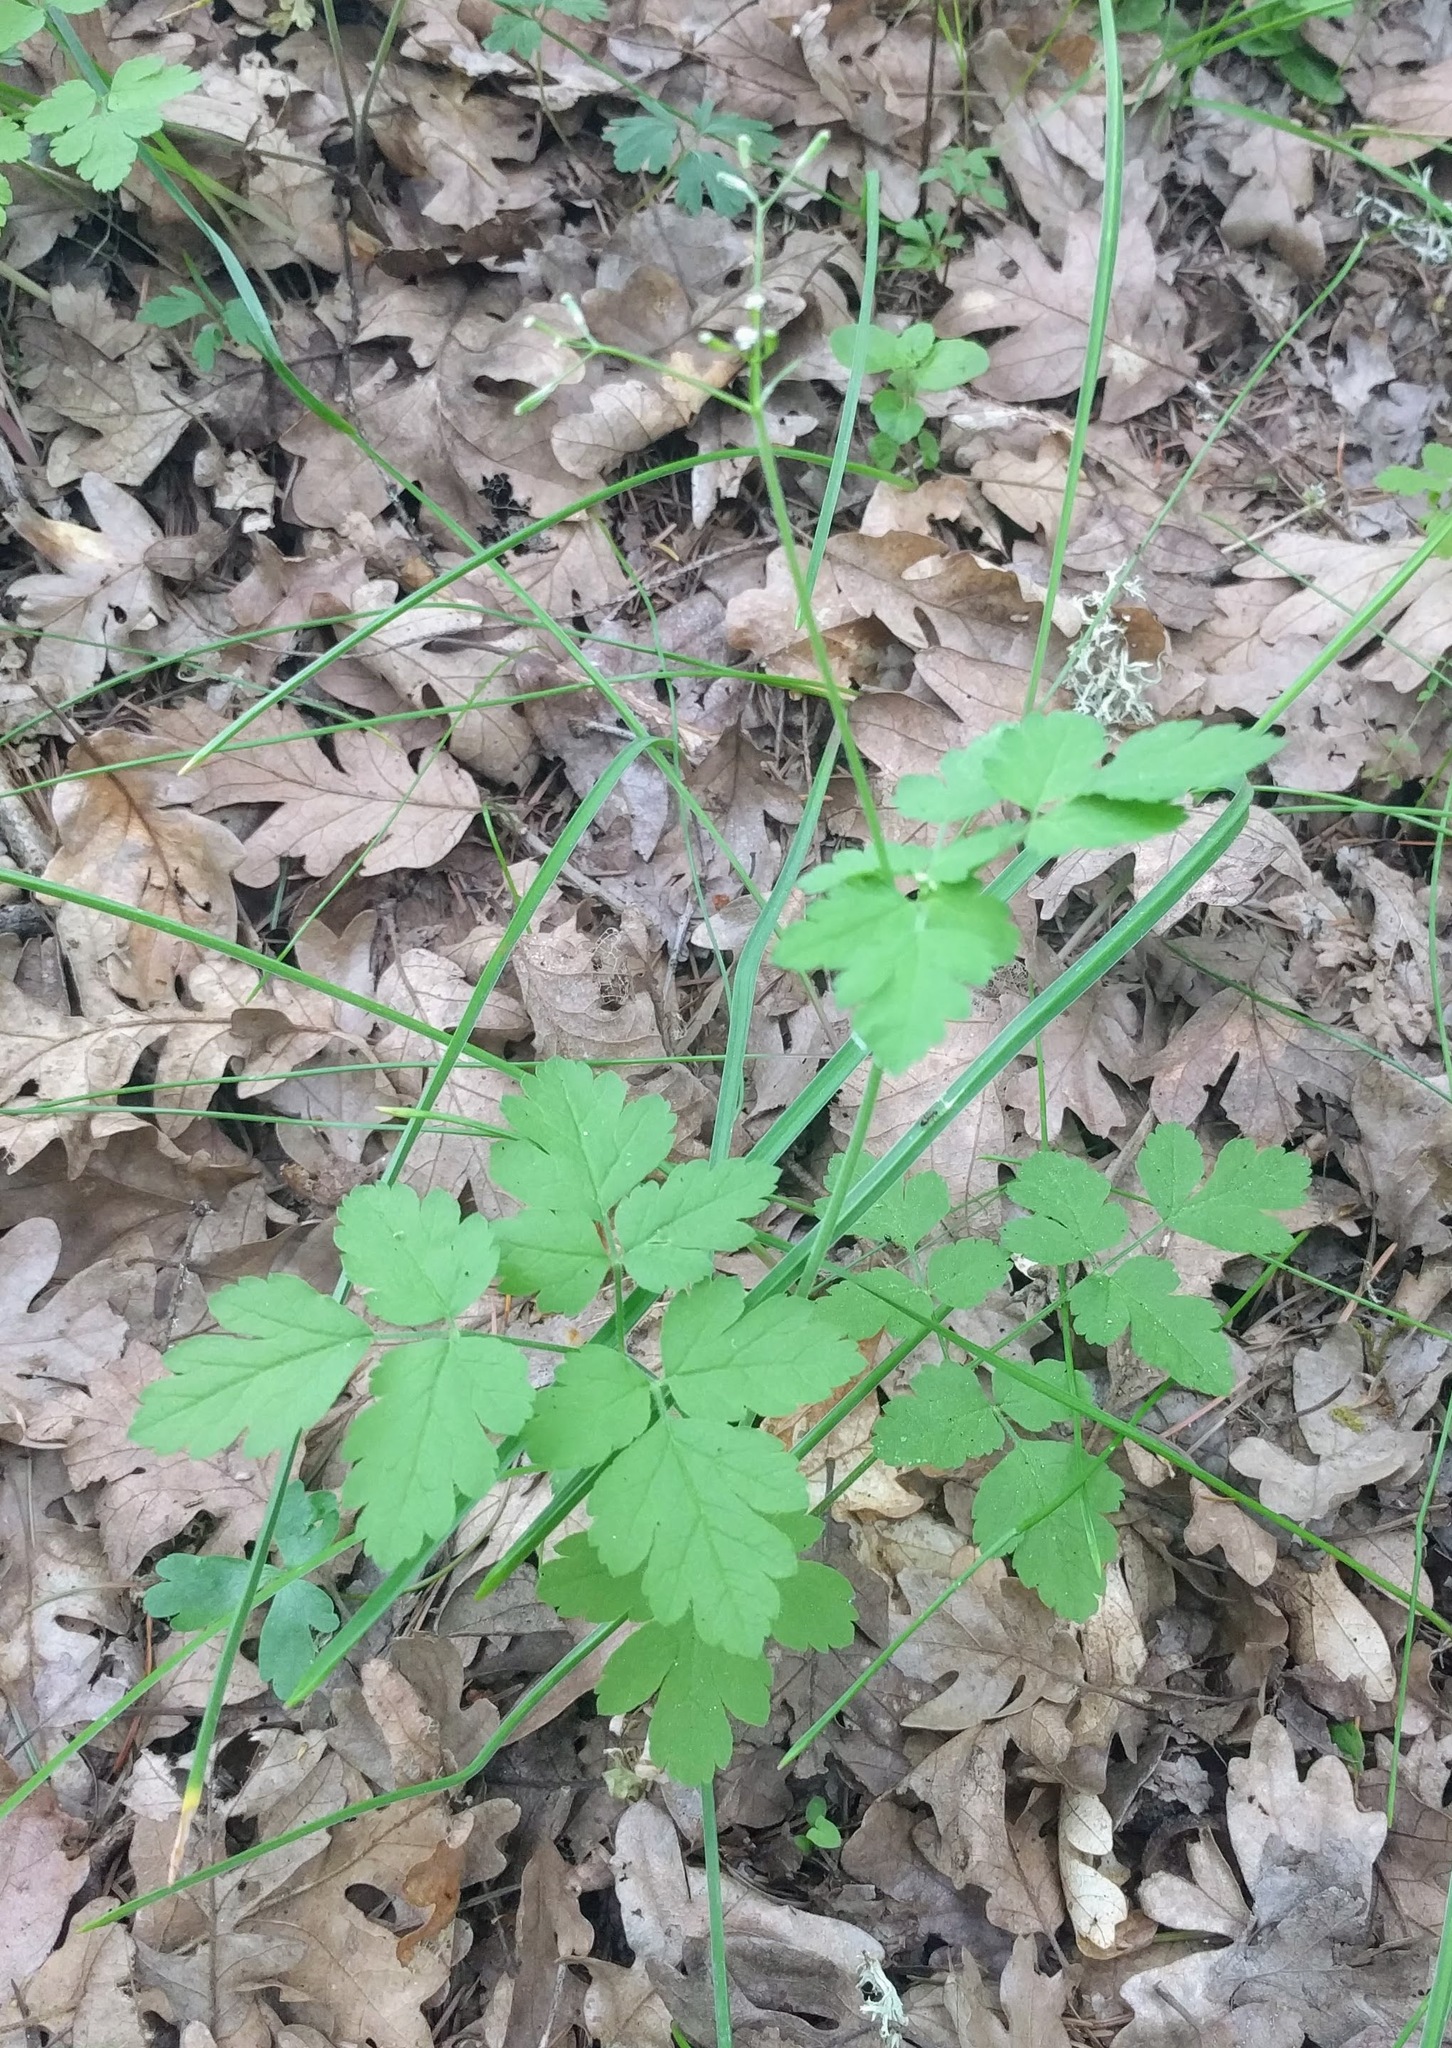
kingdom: Plantae
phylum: Tracheophyta
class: Magnoliopsida
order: Apiales
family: Apiaceae
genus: Osmorhiza
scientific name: Osmorhiza berteroi
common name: Mountain sweet cicely
